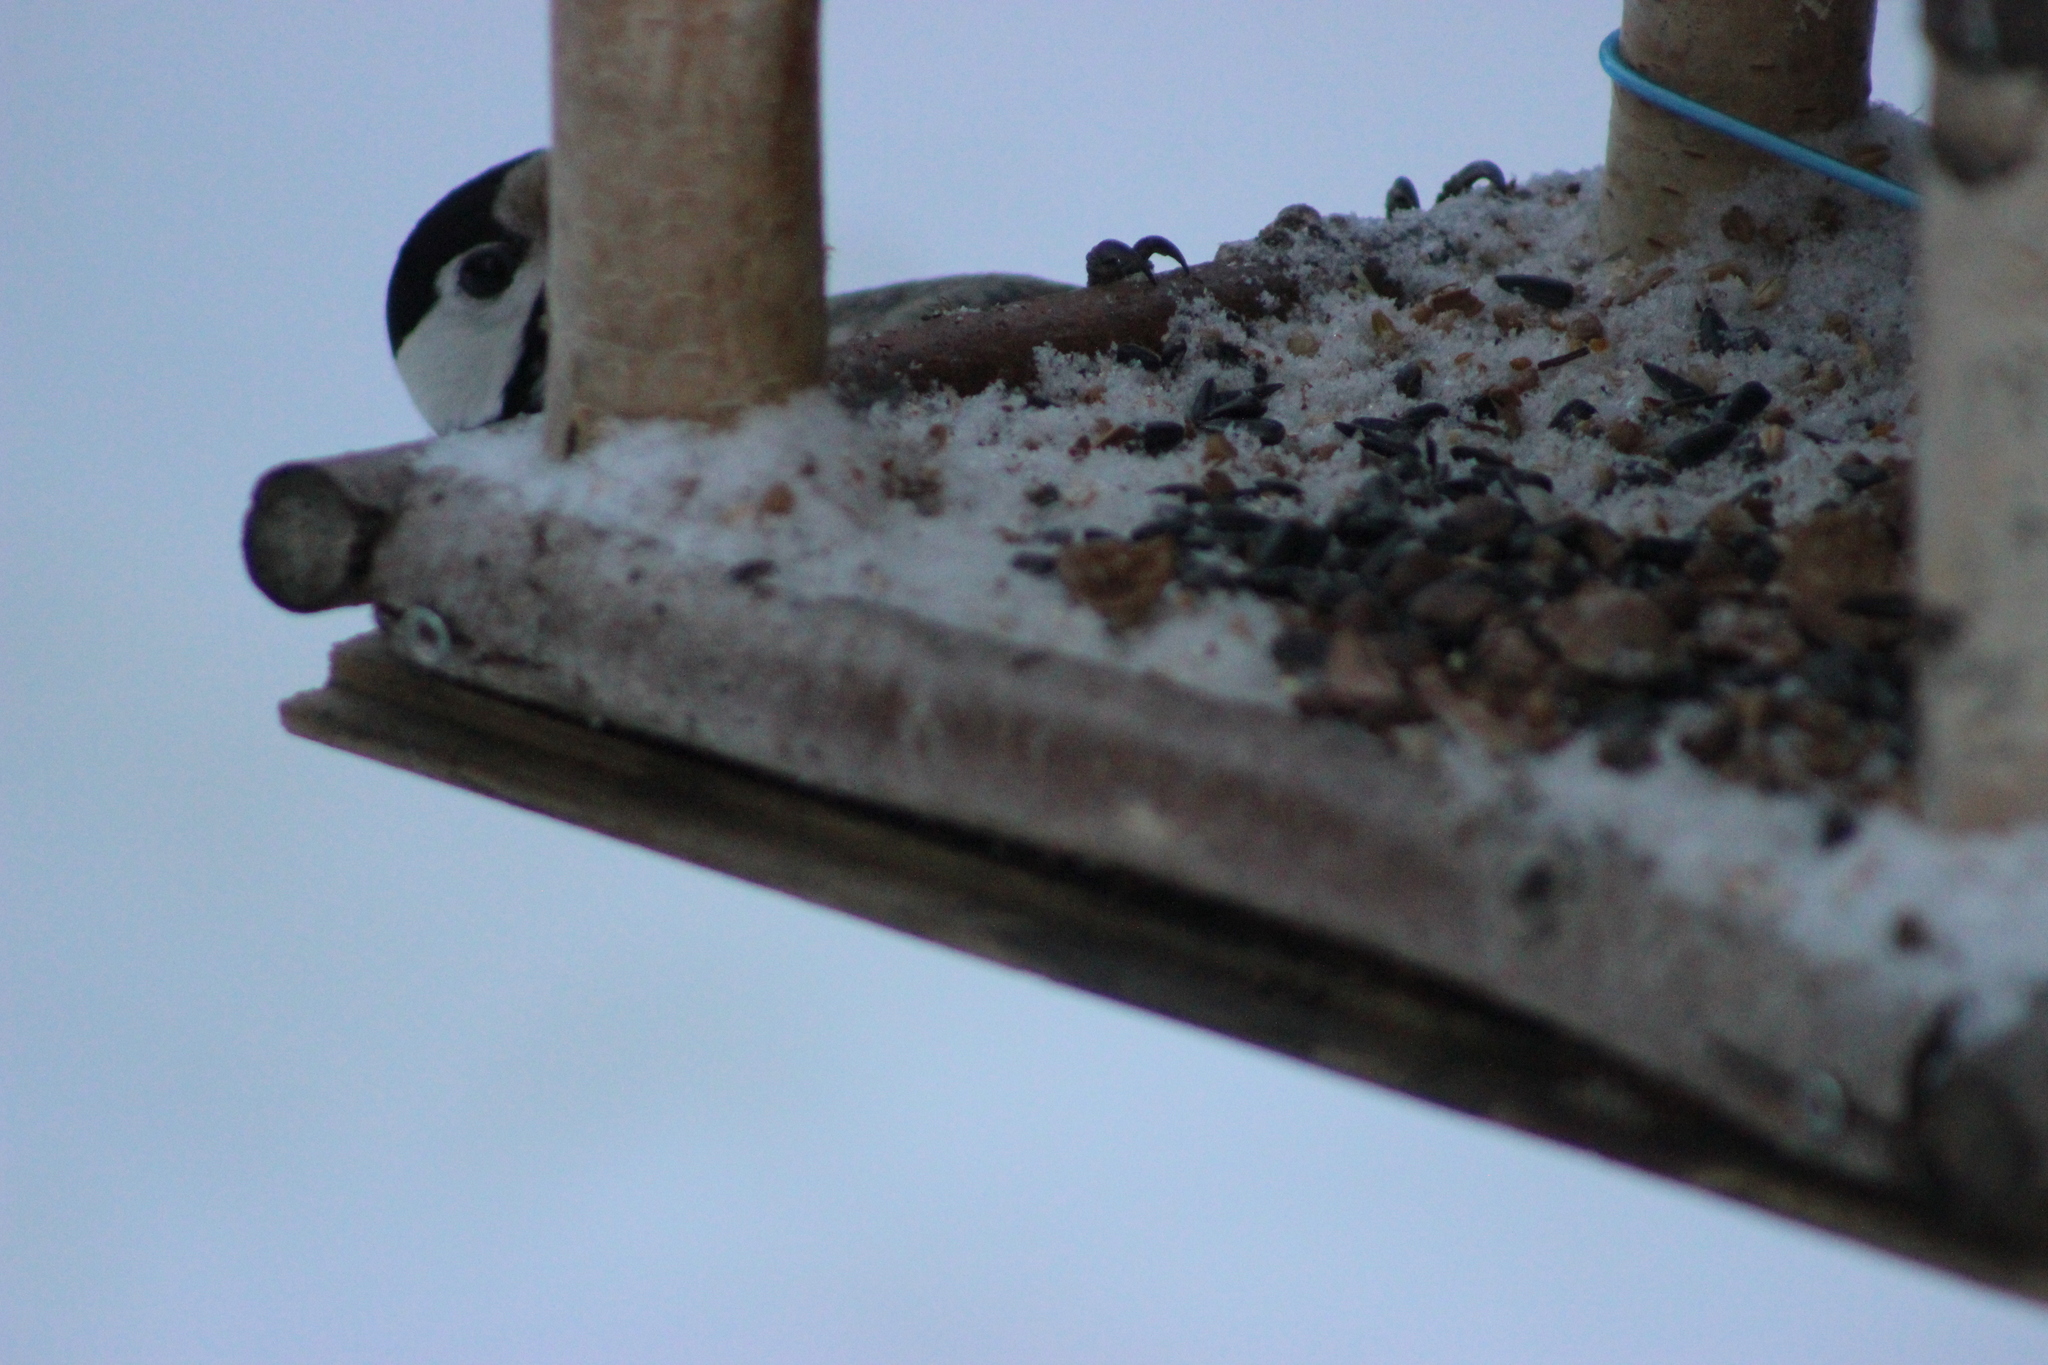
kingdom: Animalia
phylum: Chordata
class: Aves
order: Piciformes
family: Picidae
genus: Dendrocopos
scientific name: Dendrocopos major
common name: Great spotted woodpecker
